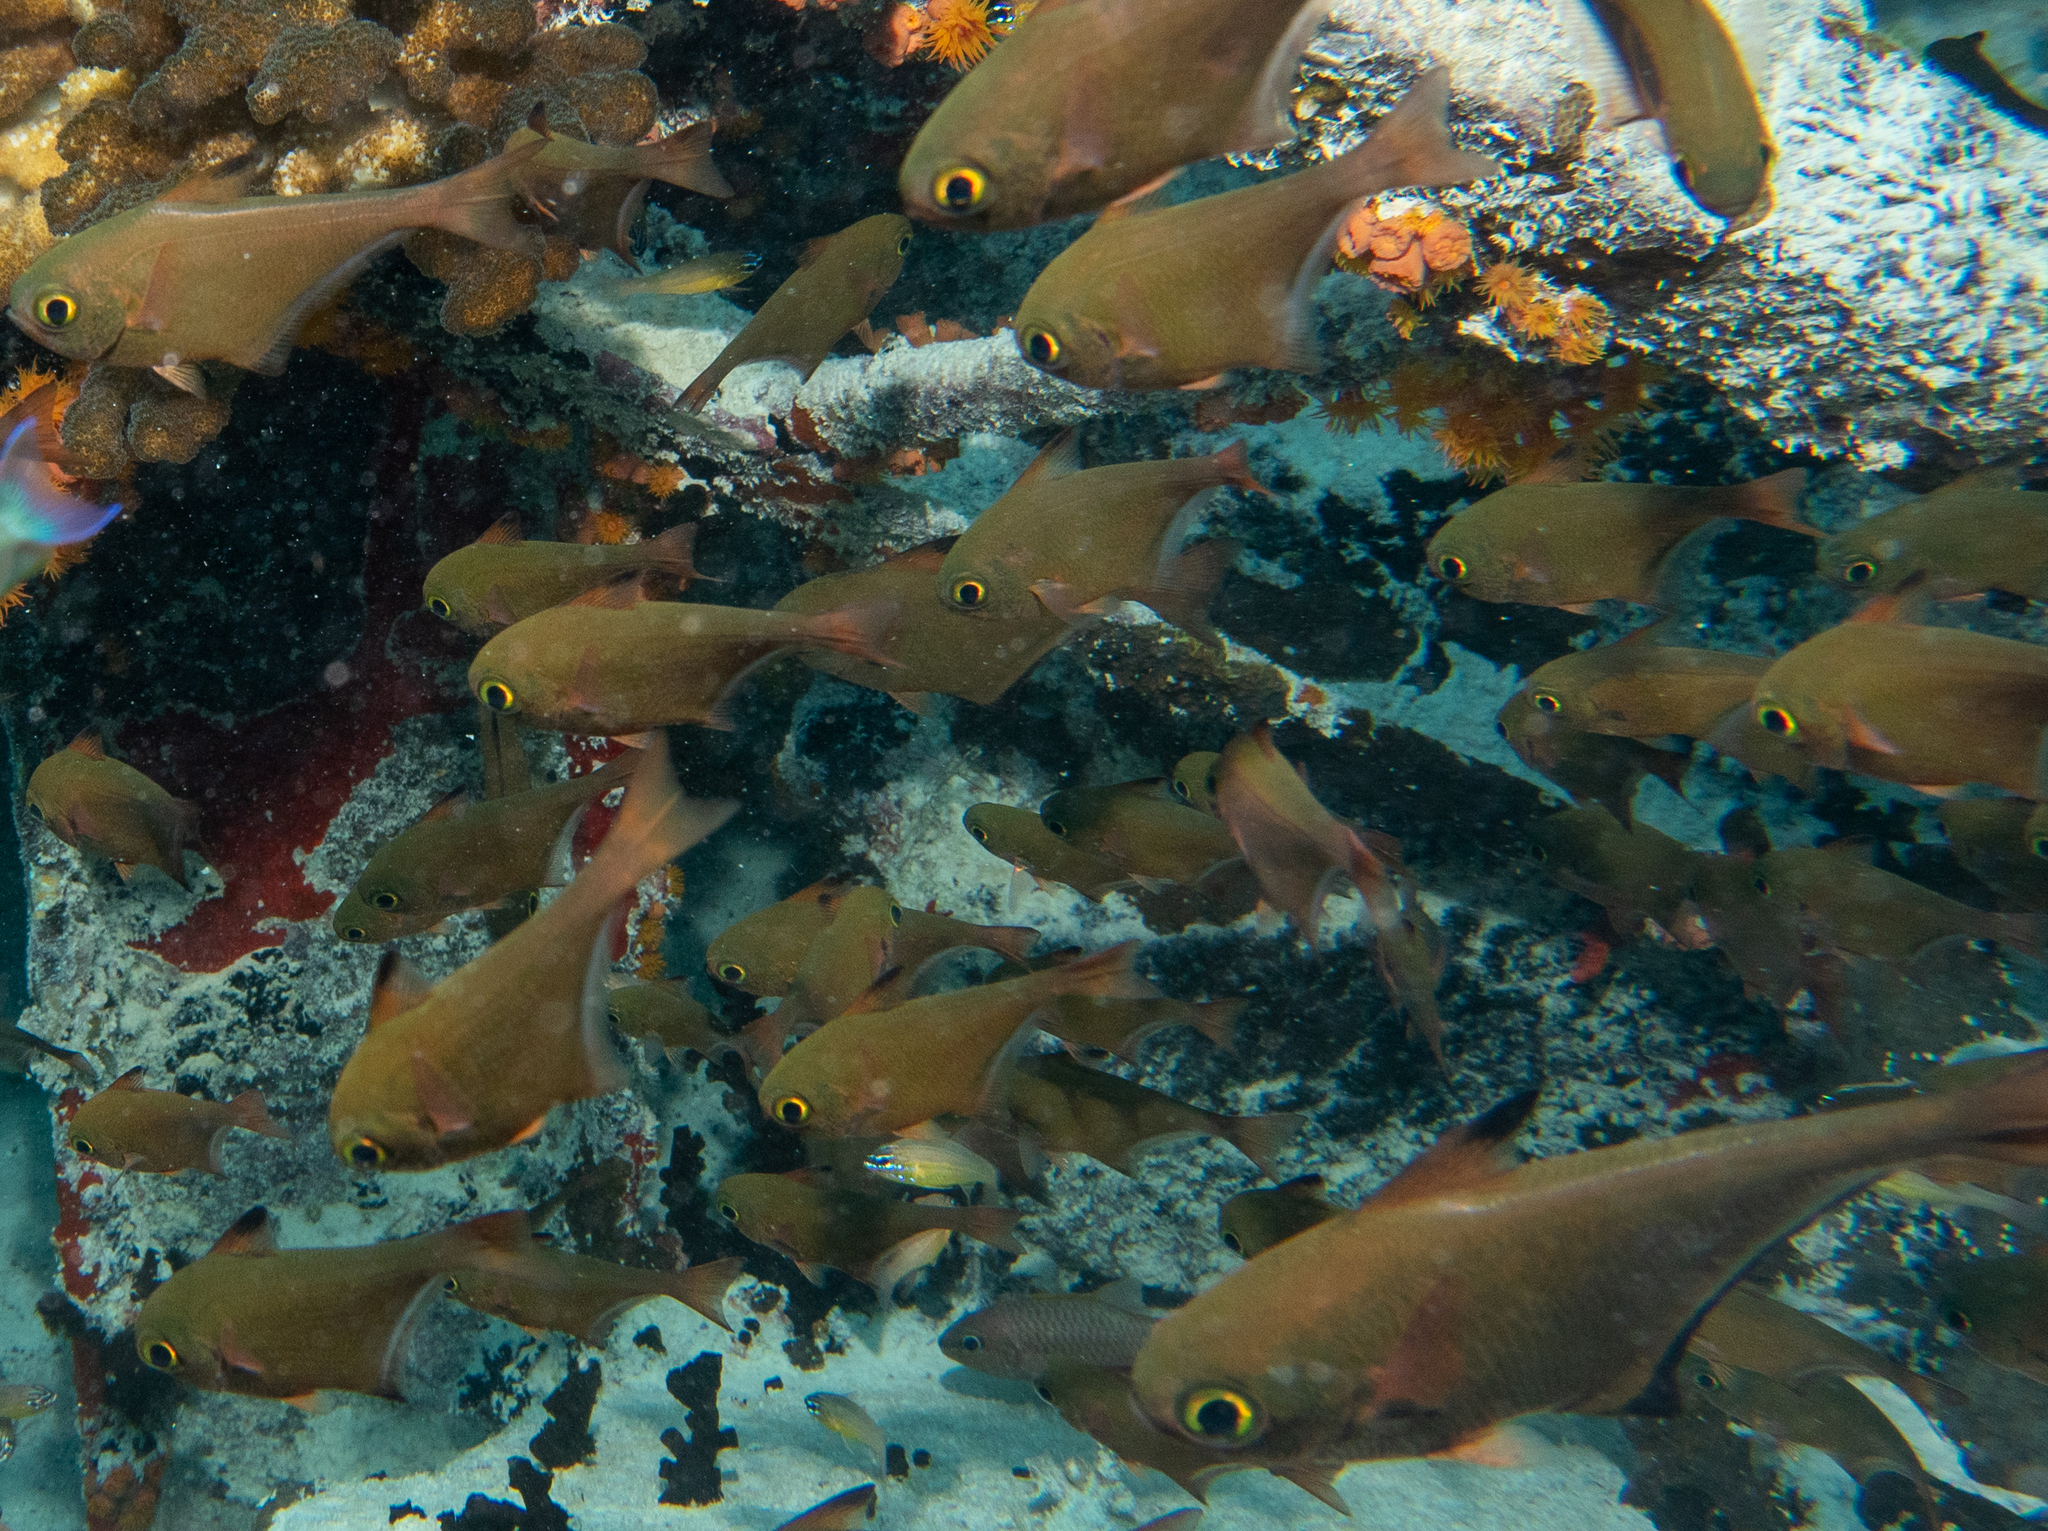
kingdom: Animalia
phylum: Chordata
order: Perciformes
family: Pempheridae
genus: Pempheris
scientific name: Pempheris vanicolensis
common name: Vanikoro sweeper
